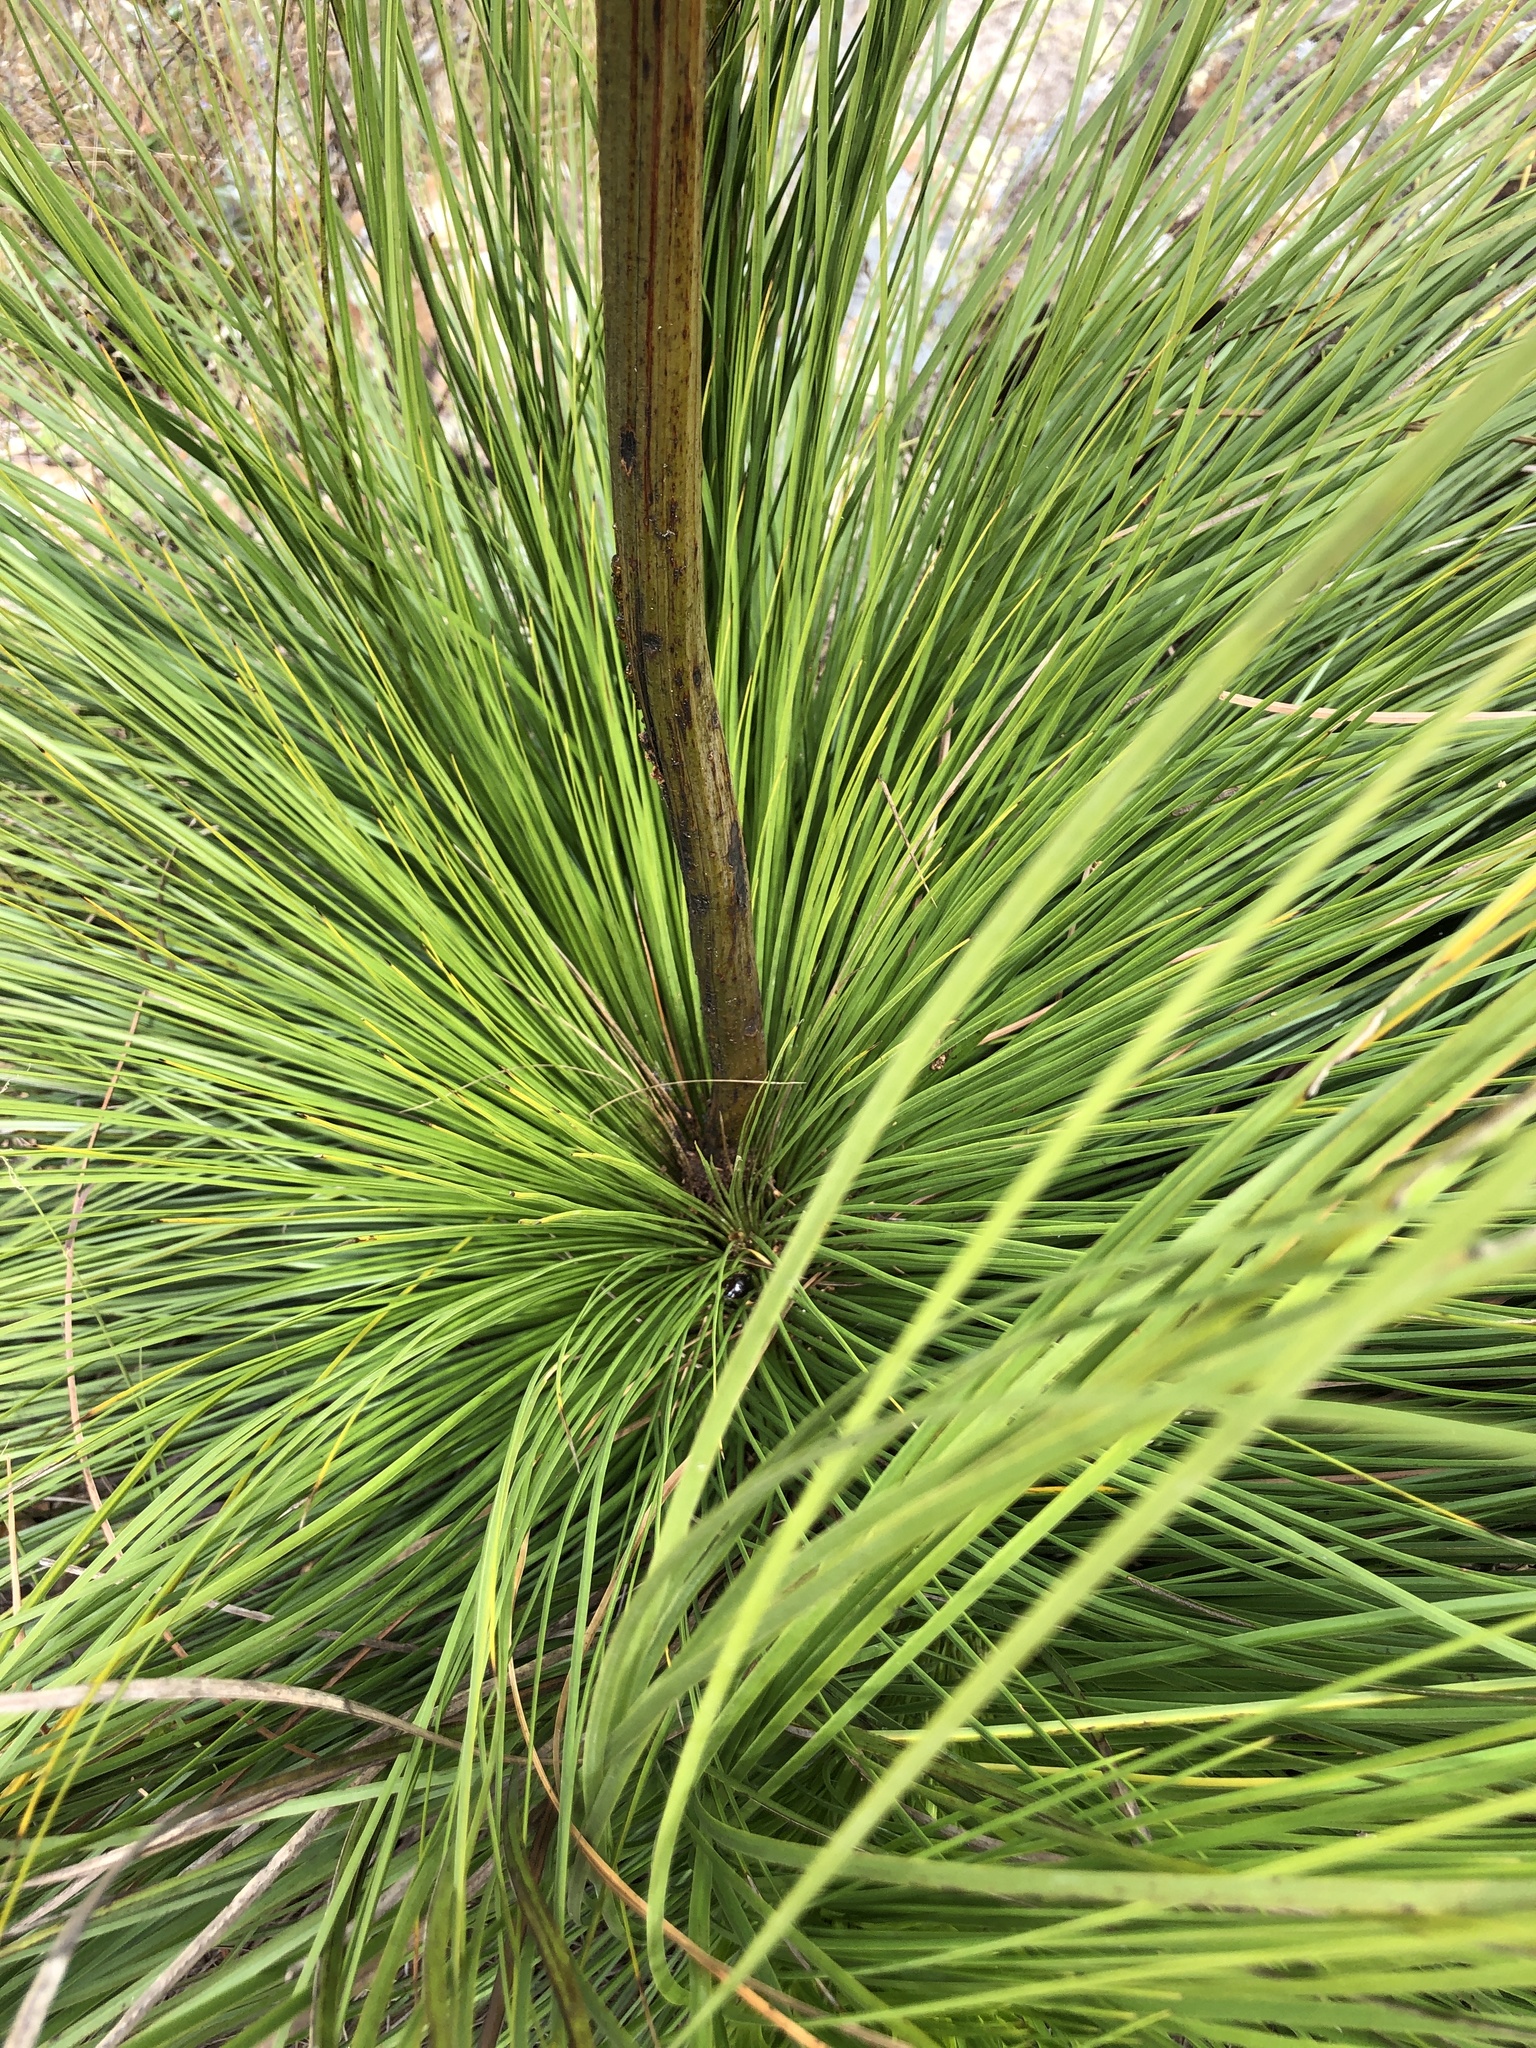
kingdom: Plantae
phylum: Tracheophyta
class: Liliopsida
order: Asparagales
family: Asphodelaceae
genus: Xanthorrhoea
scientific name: Xanthorrhoea latifolia
